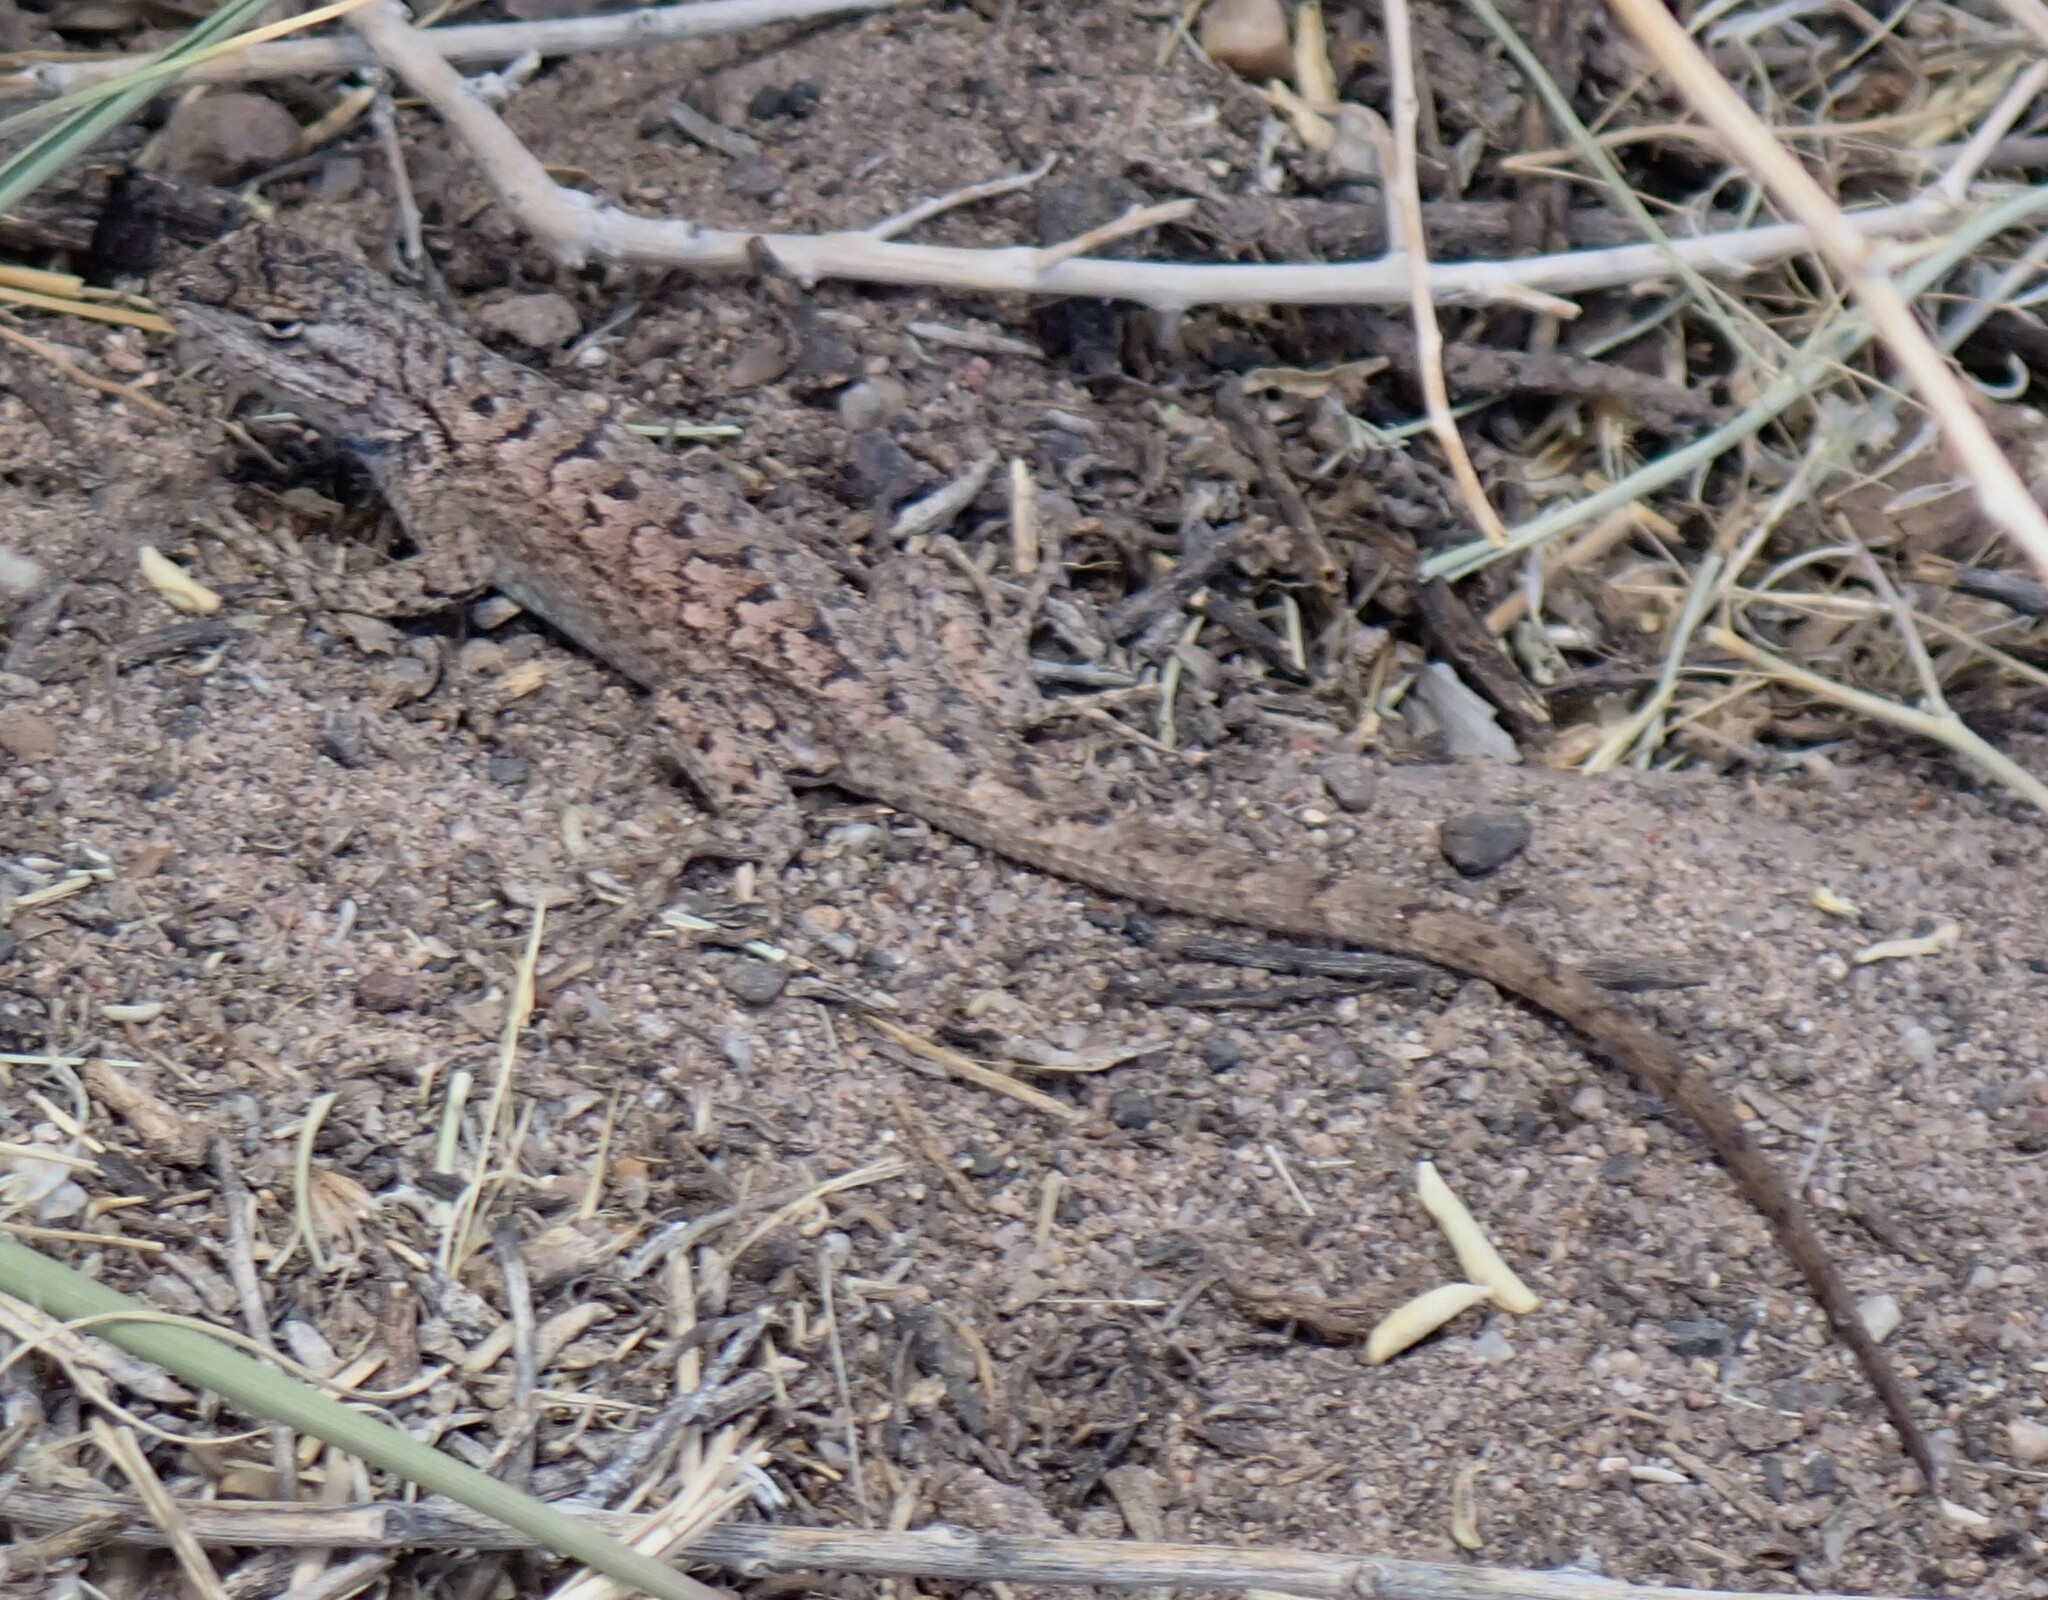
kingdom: Animalia
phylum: Chordata
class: Squamata
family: Phrynosomatidae
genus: Sceloporus
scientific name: Sceloporus tristichus
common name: Plateau fence lizard
